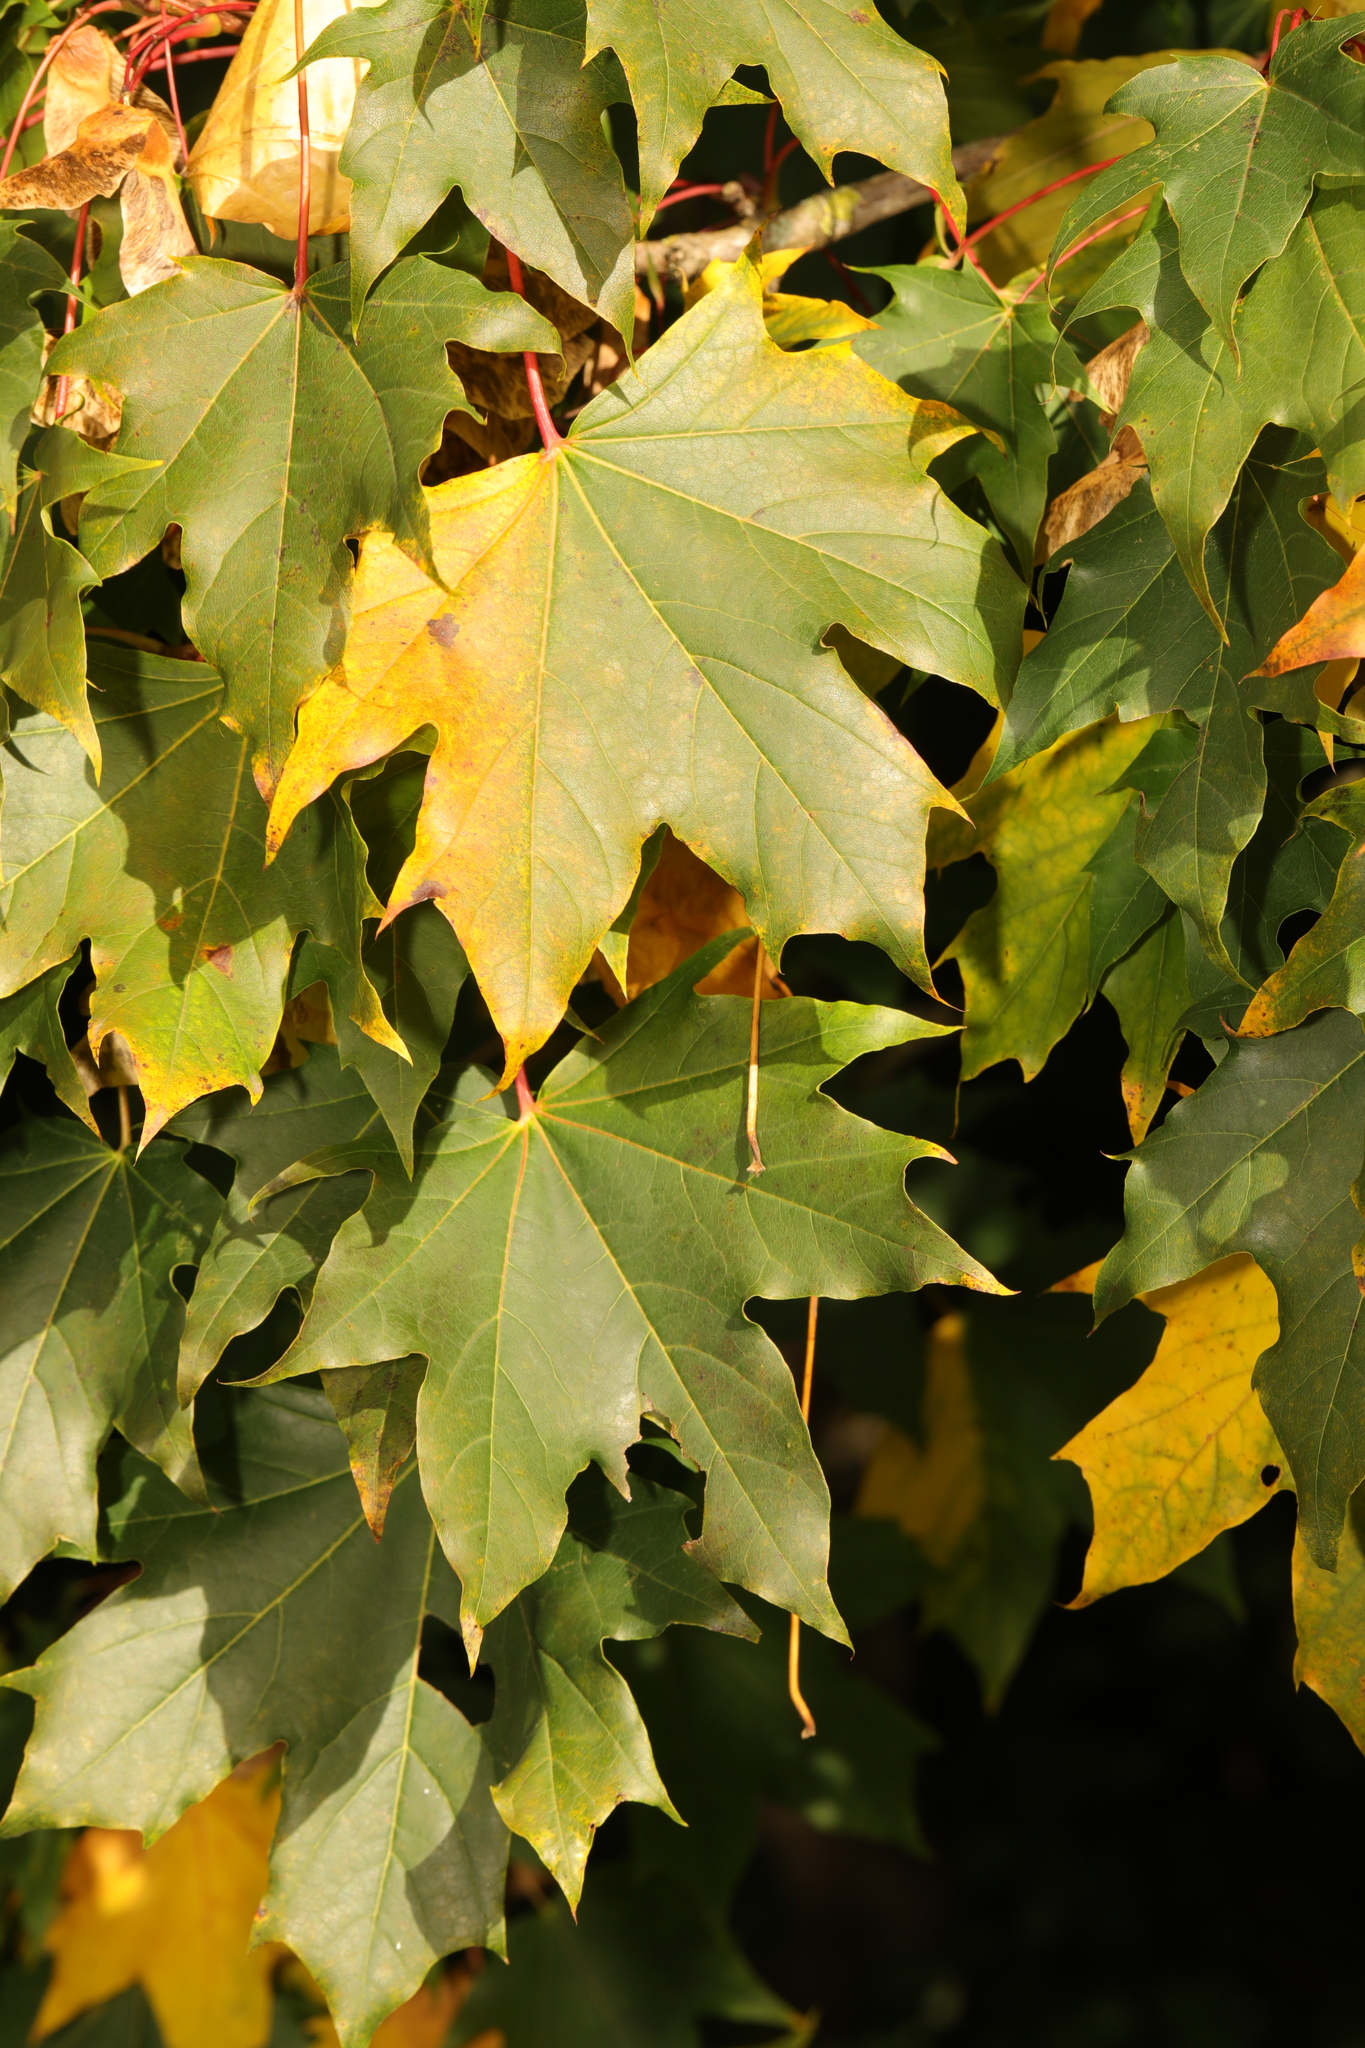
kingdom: Plantae
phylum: Tracheophyta
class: Magnoliopsida
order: Sapindales
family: Sapindaceae
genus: Acer
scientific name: Acer platanoides
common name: Norway maple
